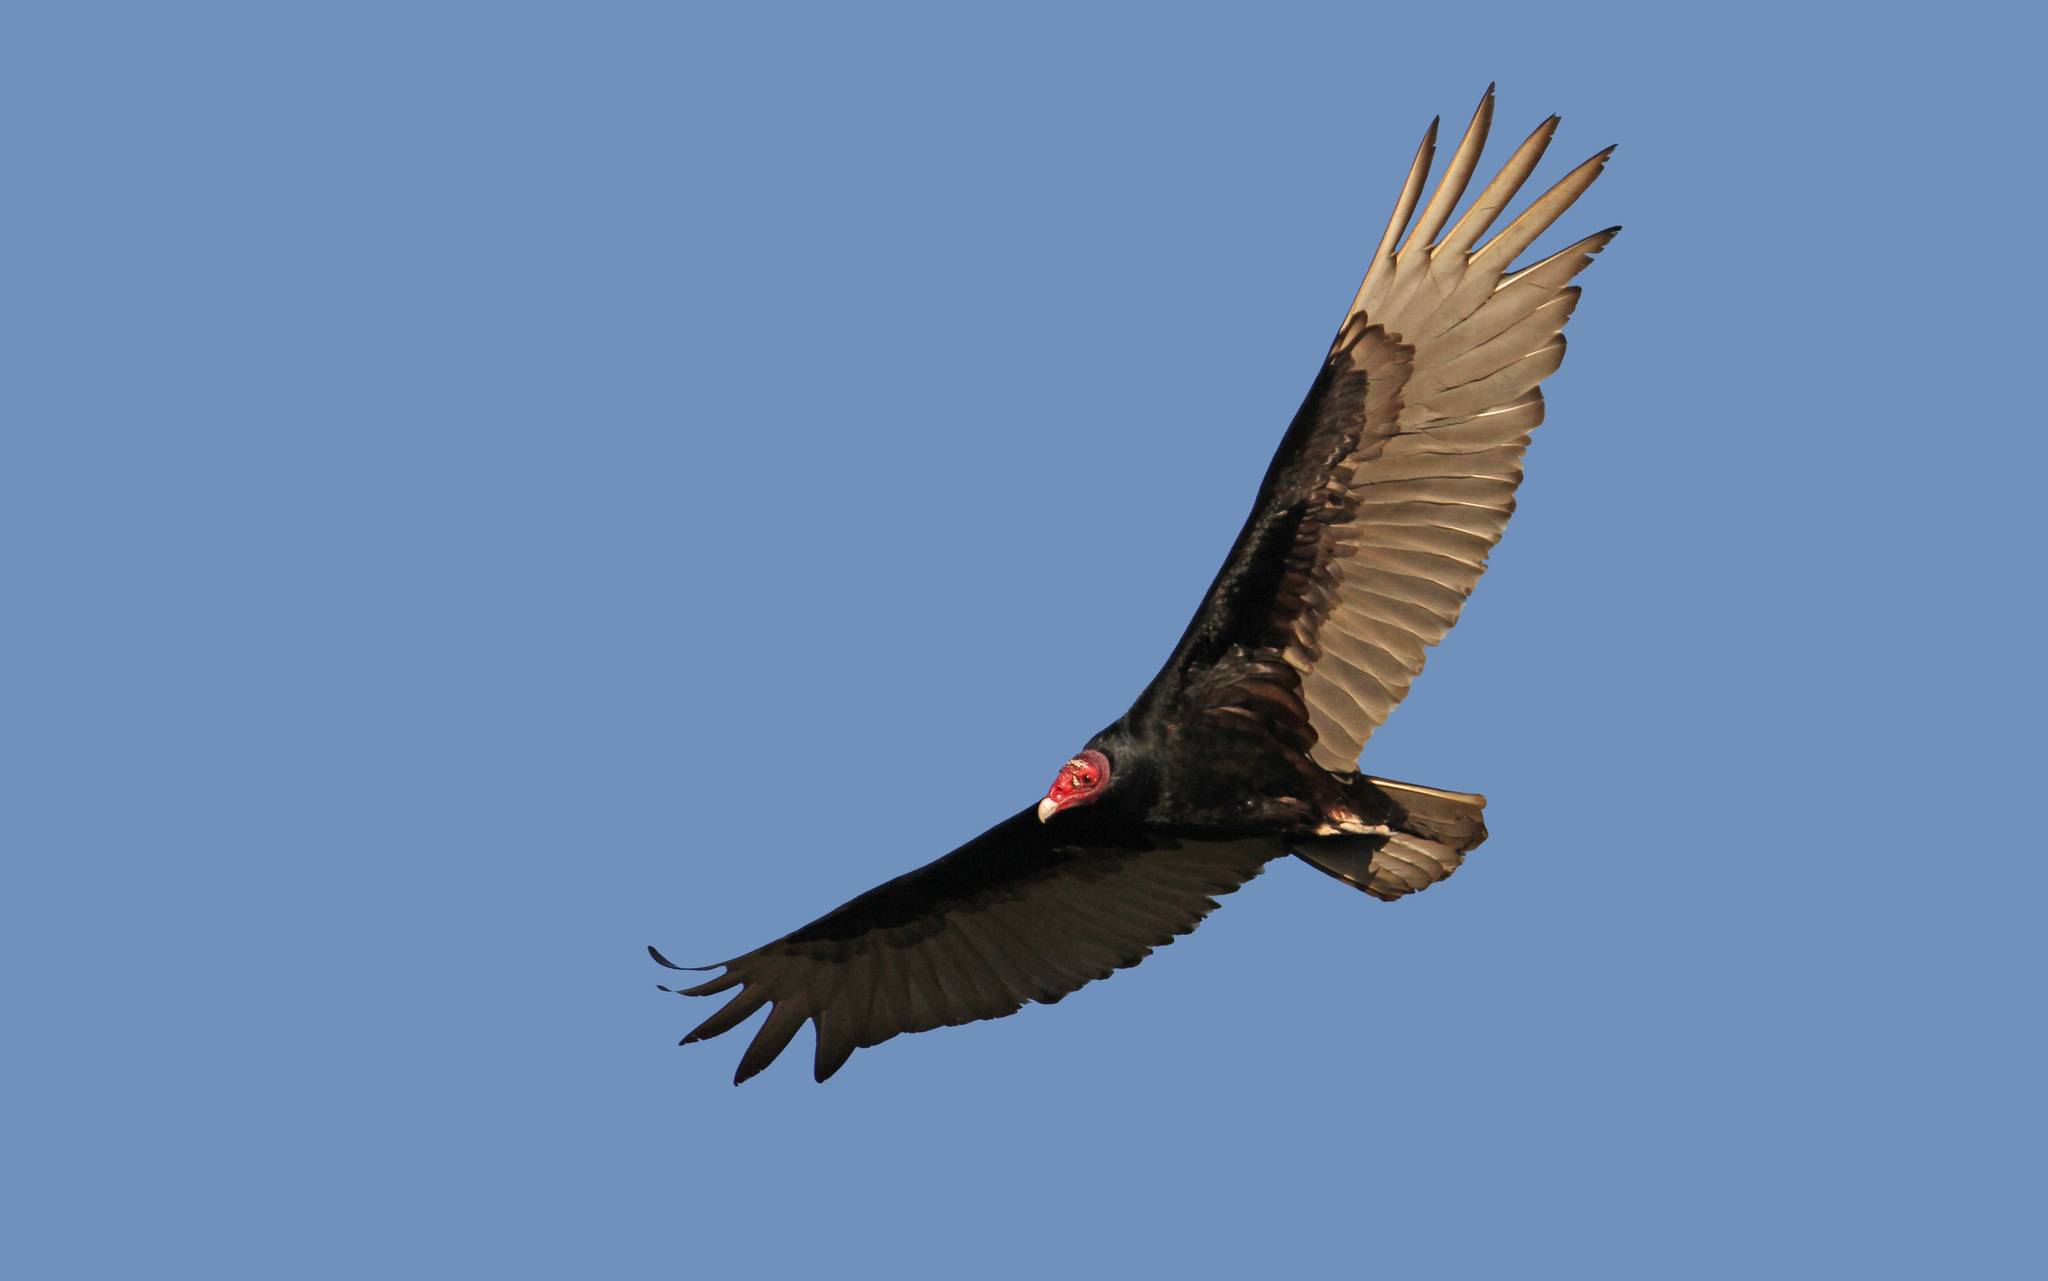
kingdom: Animalia
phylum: Chordata
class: Aves
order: Accipitriformes
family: Cathartidae
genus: Cathartes
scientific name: Cathartes aura
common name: Turkey vulture
